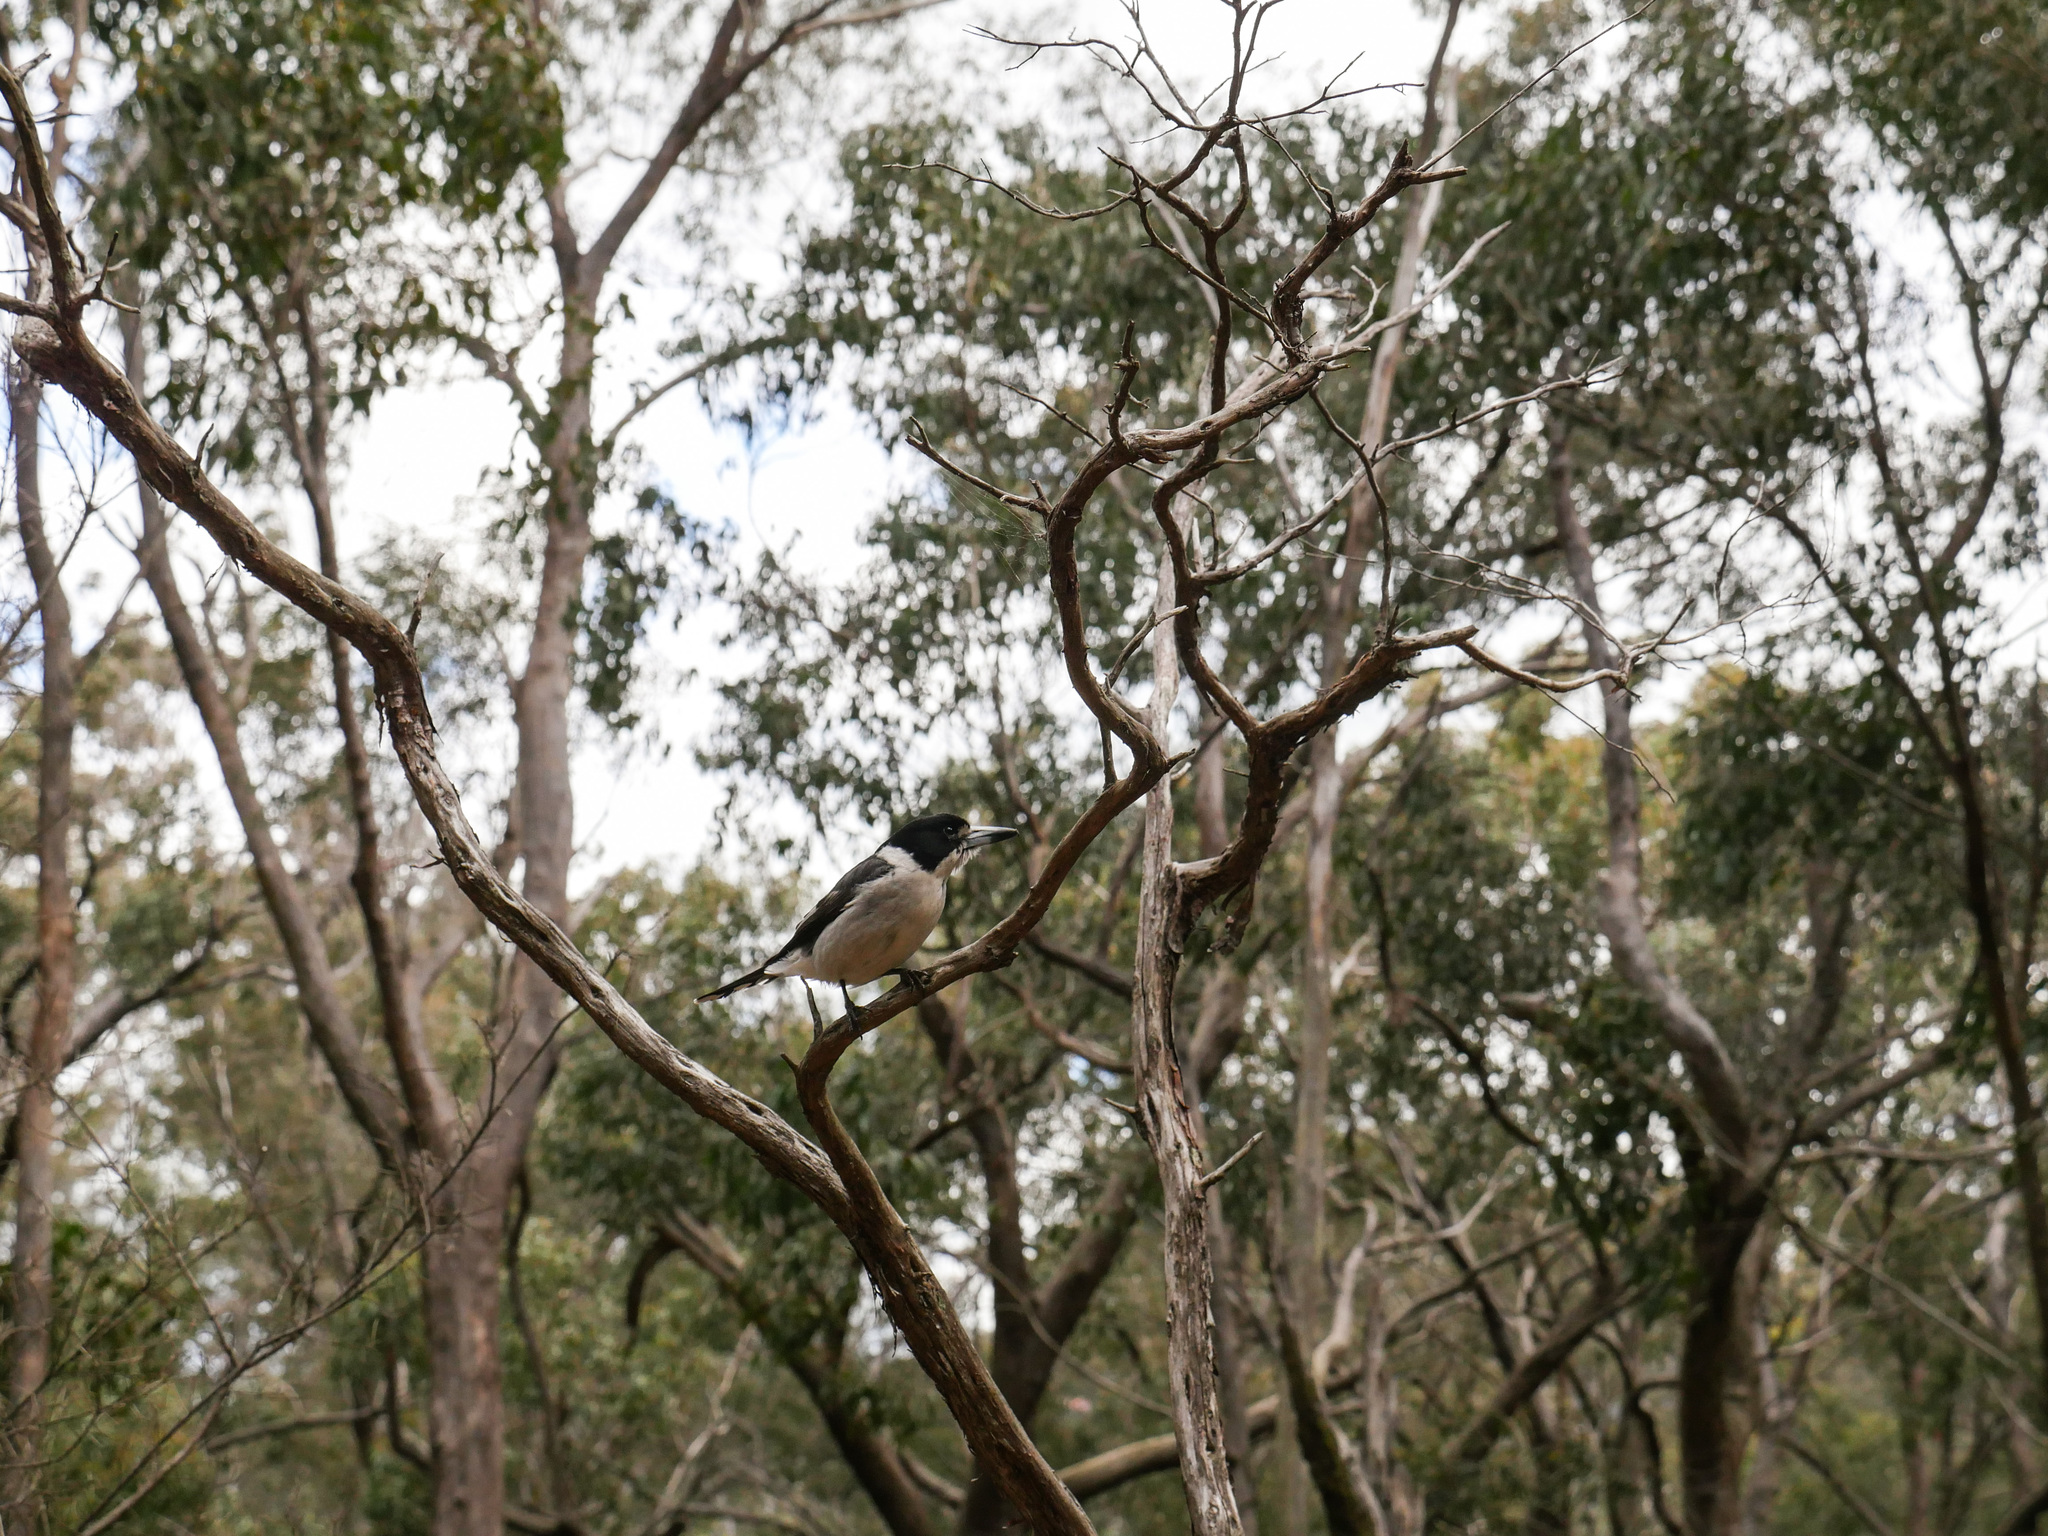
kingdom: Animalia
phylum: Chordata
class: Aves
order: Passeriformes
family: Cracticidae
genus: Cracticus
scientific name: Cracticus torquatus
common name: Grey butcherbird
